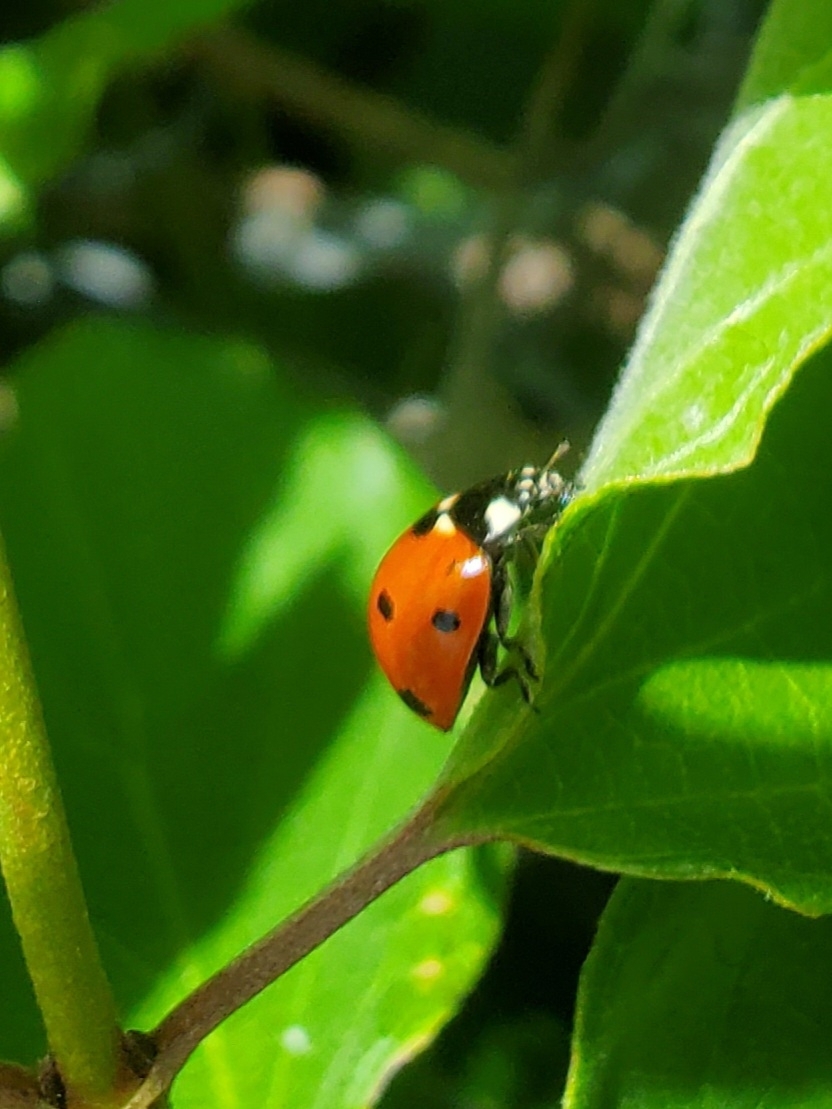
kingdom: Animalia
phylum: Arthropoda
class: Insecta
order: Coleoptera
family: Coccinellidae
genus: Coccinella
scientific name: Coccinella septempunctata
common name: Sevenspotted lady beetle
